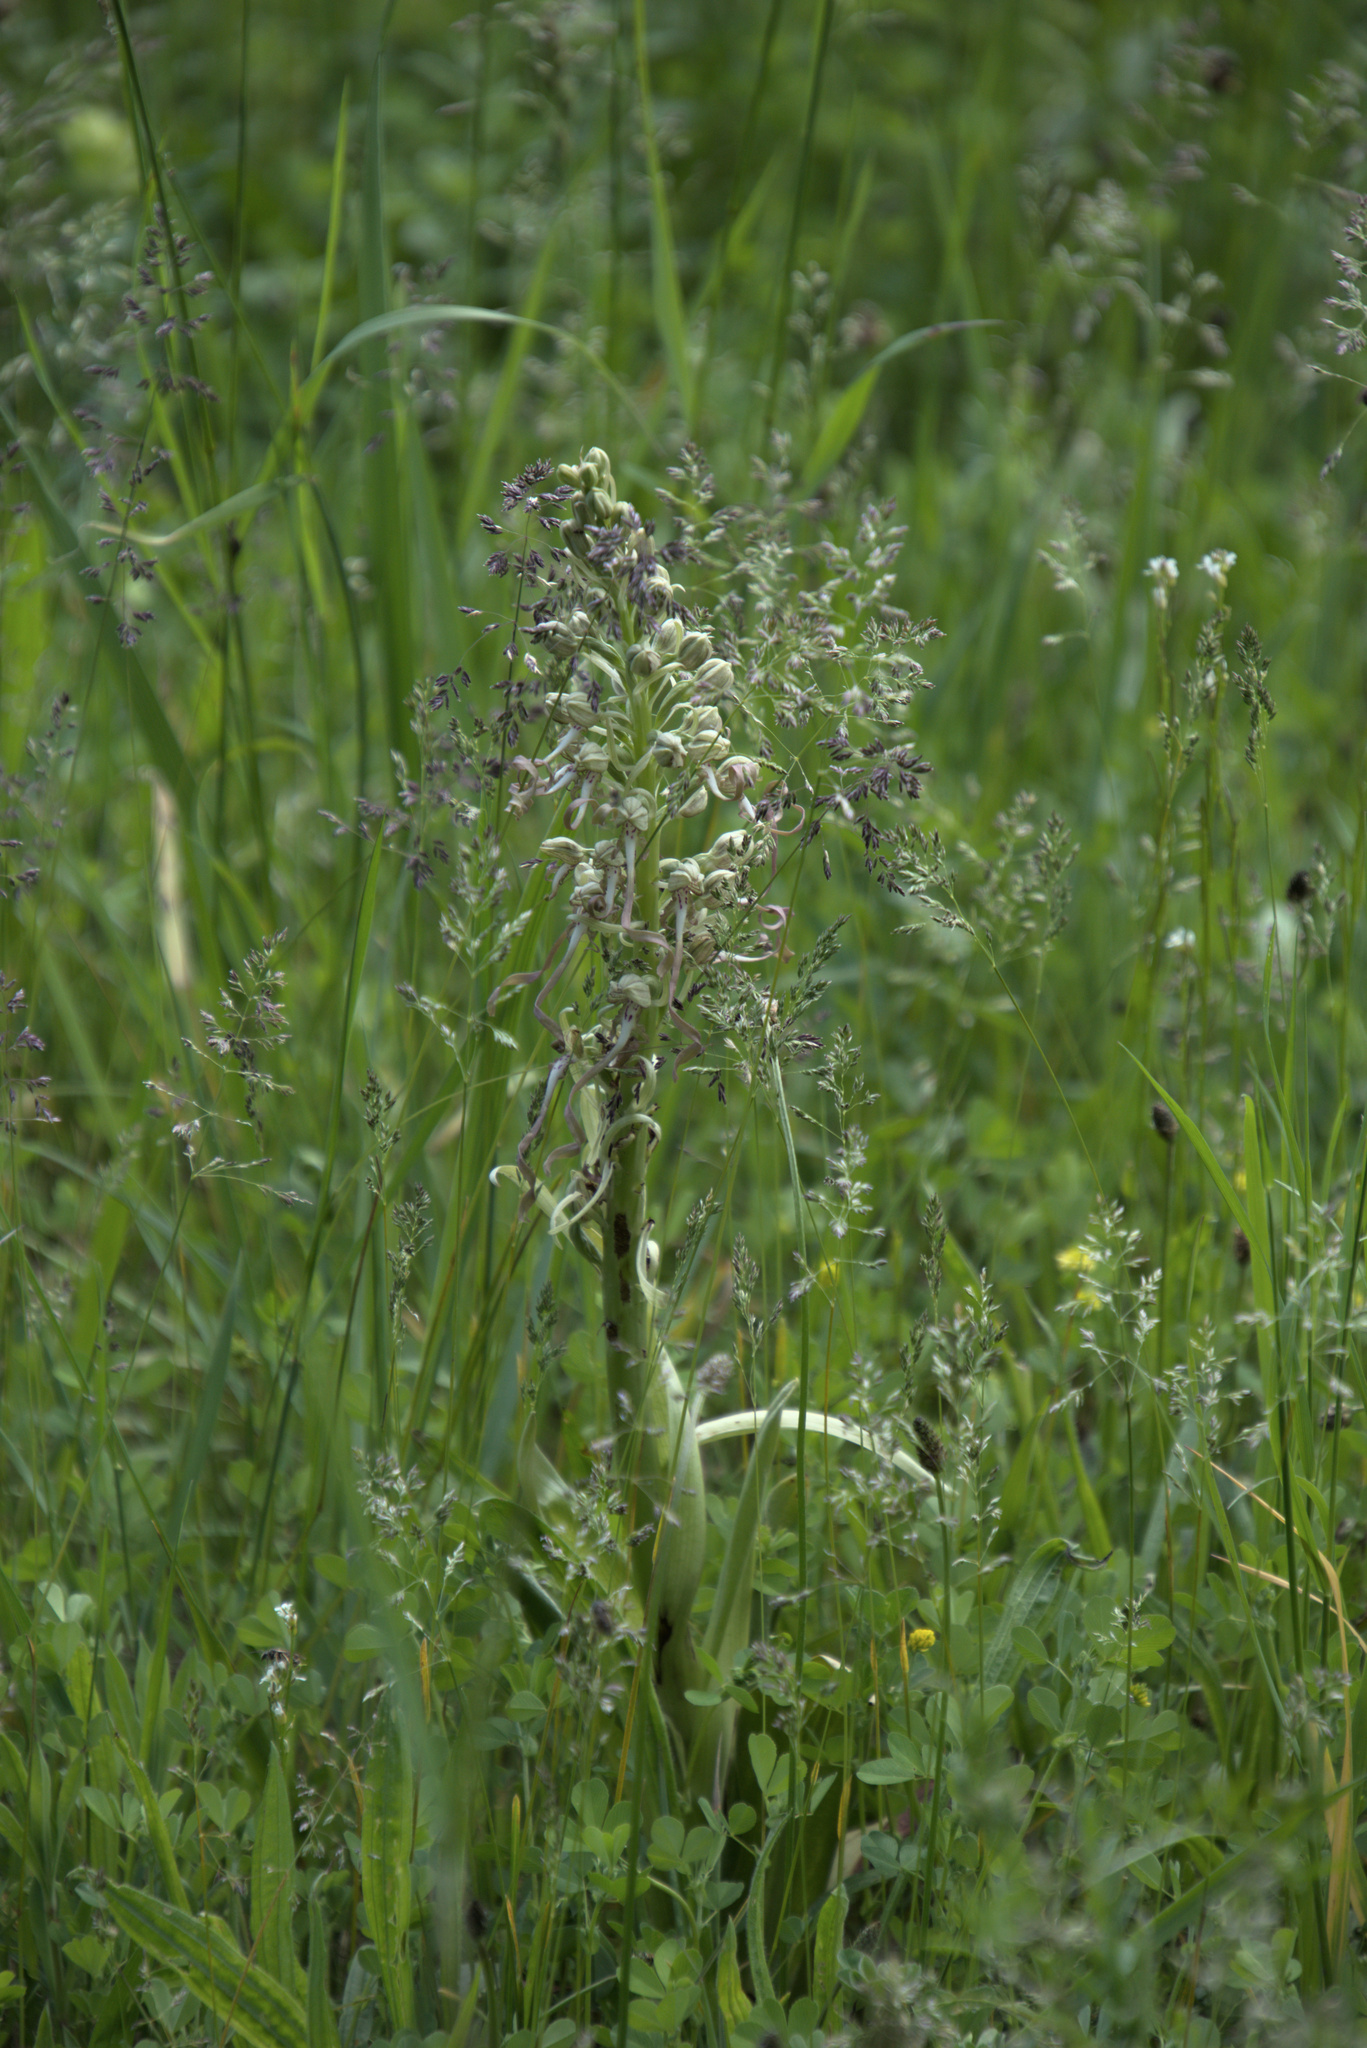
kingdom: Plantae
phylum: Tracheophyta
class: Liliopsida
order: Asparagales
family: Orchidaceae
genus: Himantoglossum
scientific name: Himantoglossum hircinum
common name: Lizard orchid
